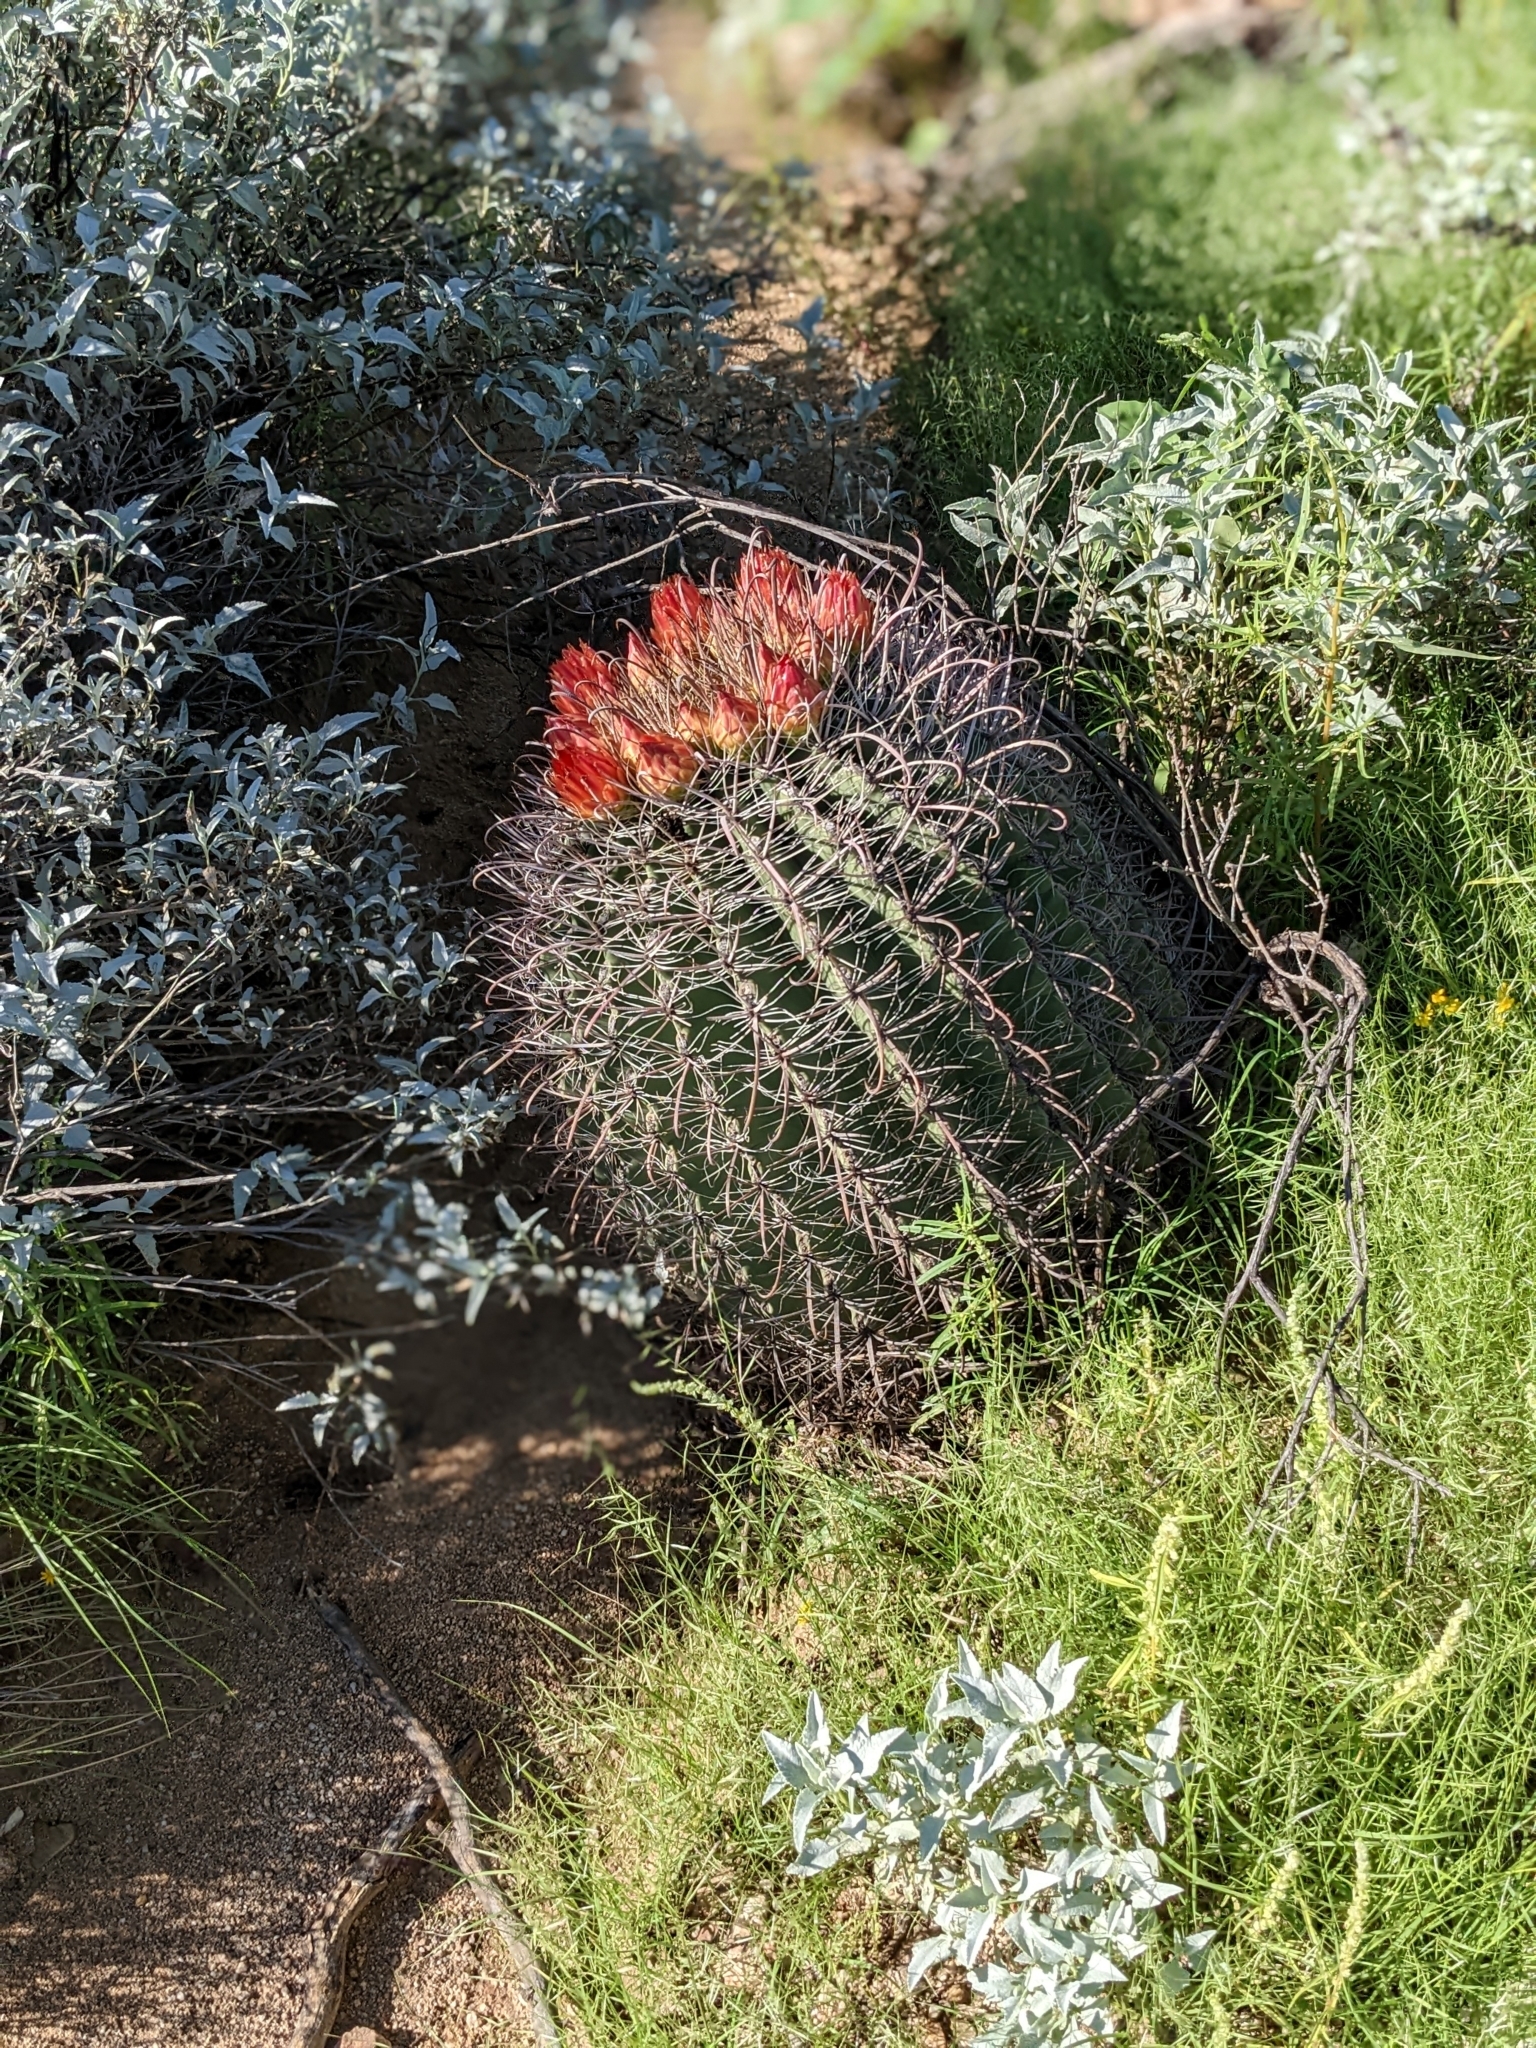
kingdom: Plantae
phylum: Tracheophyta
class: Magnoliopsida
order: Caryophyllales
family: Cactaceae
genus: Ferocactus
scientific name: Ferocactus wislizeni
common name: Candy barrel cactus
